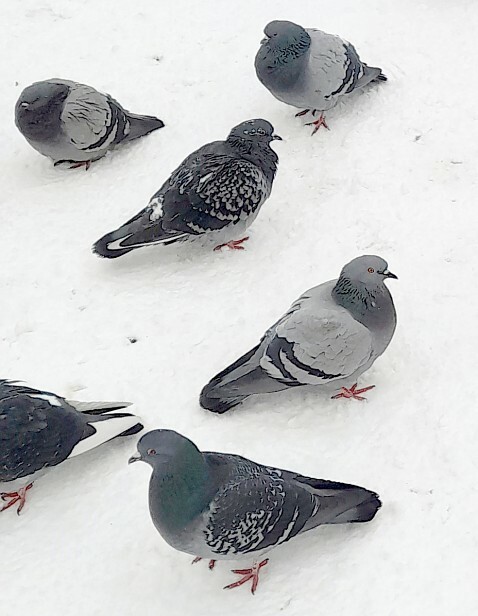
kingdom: Animalia
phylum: Chordata
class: Aves
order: Columbiformes
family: Columbidae
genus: Columba
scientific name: Columba livia
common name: Rock pigeon
